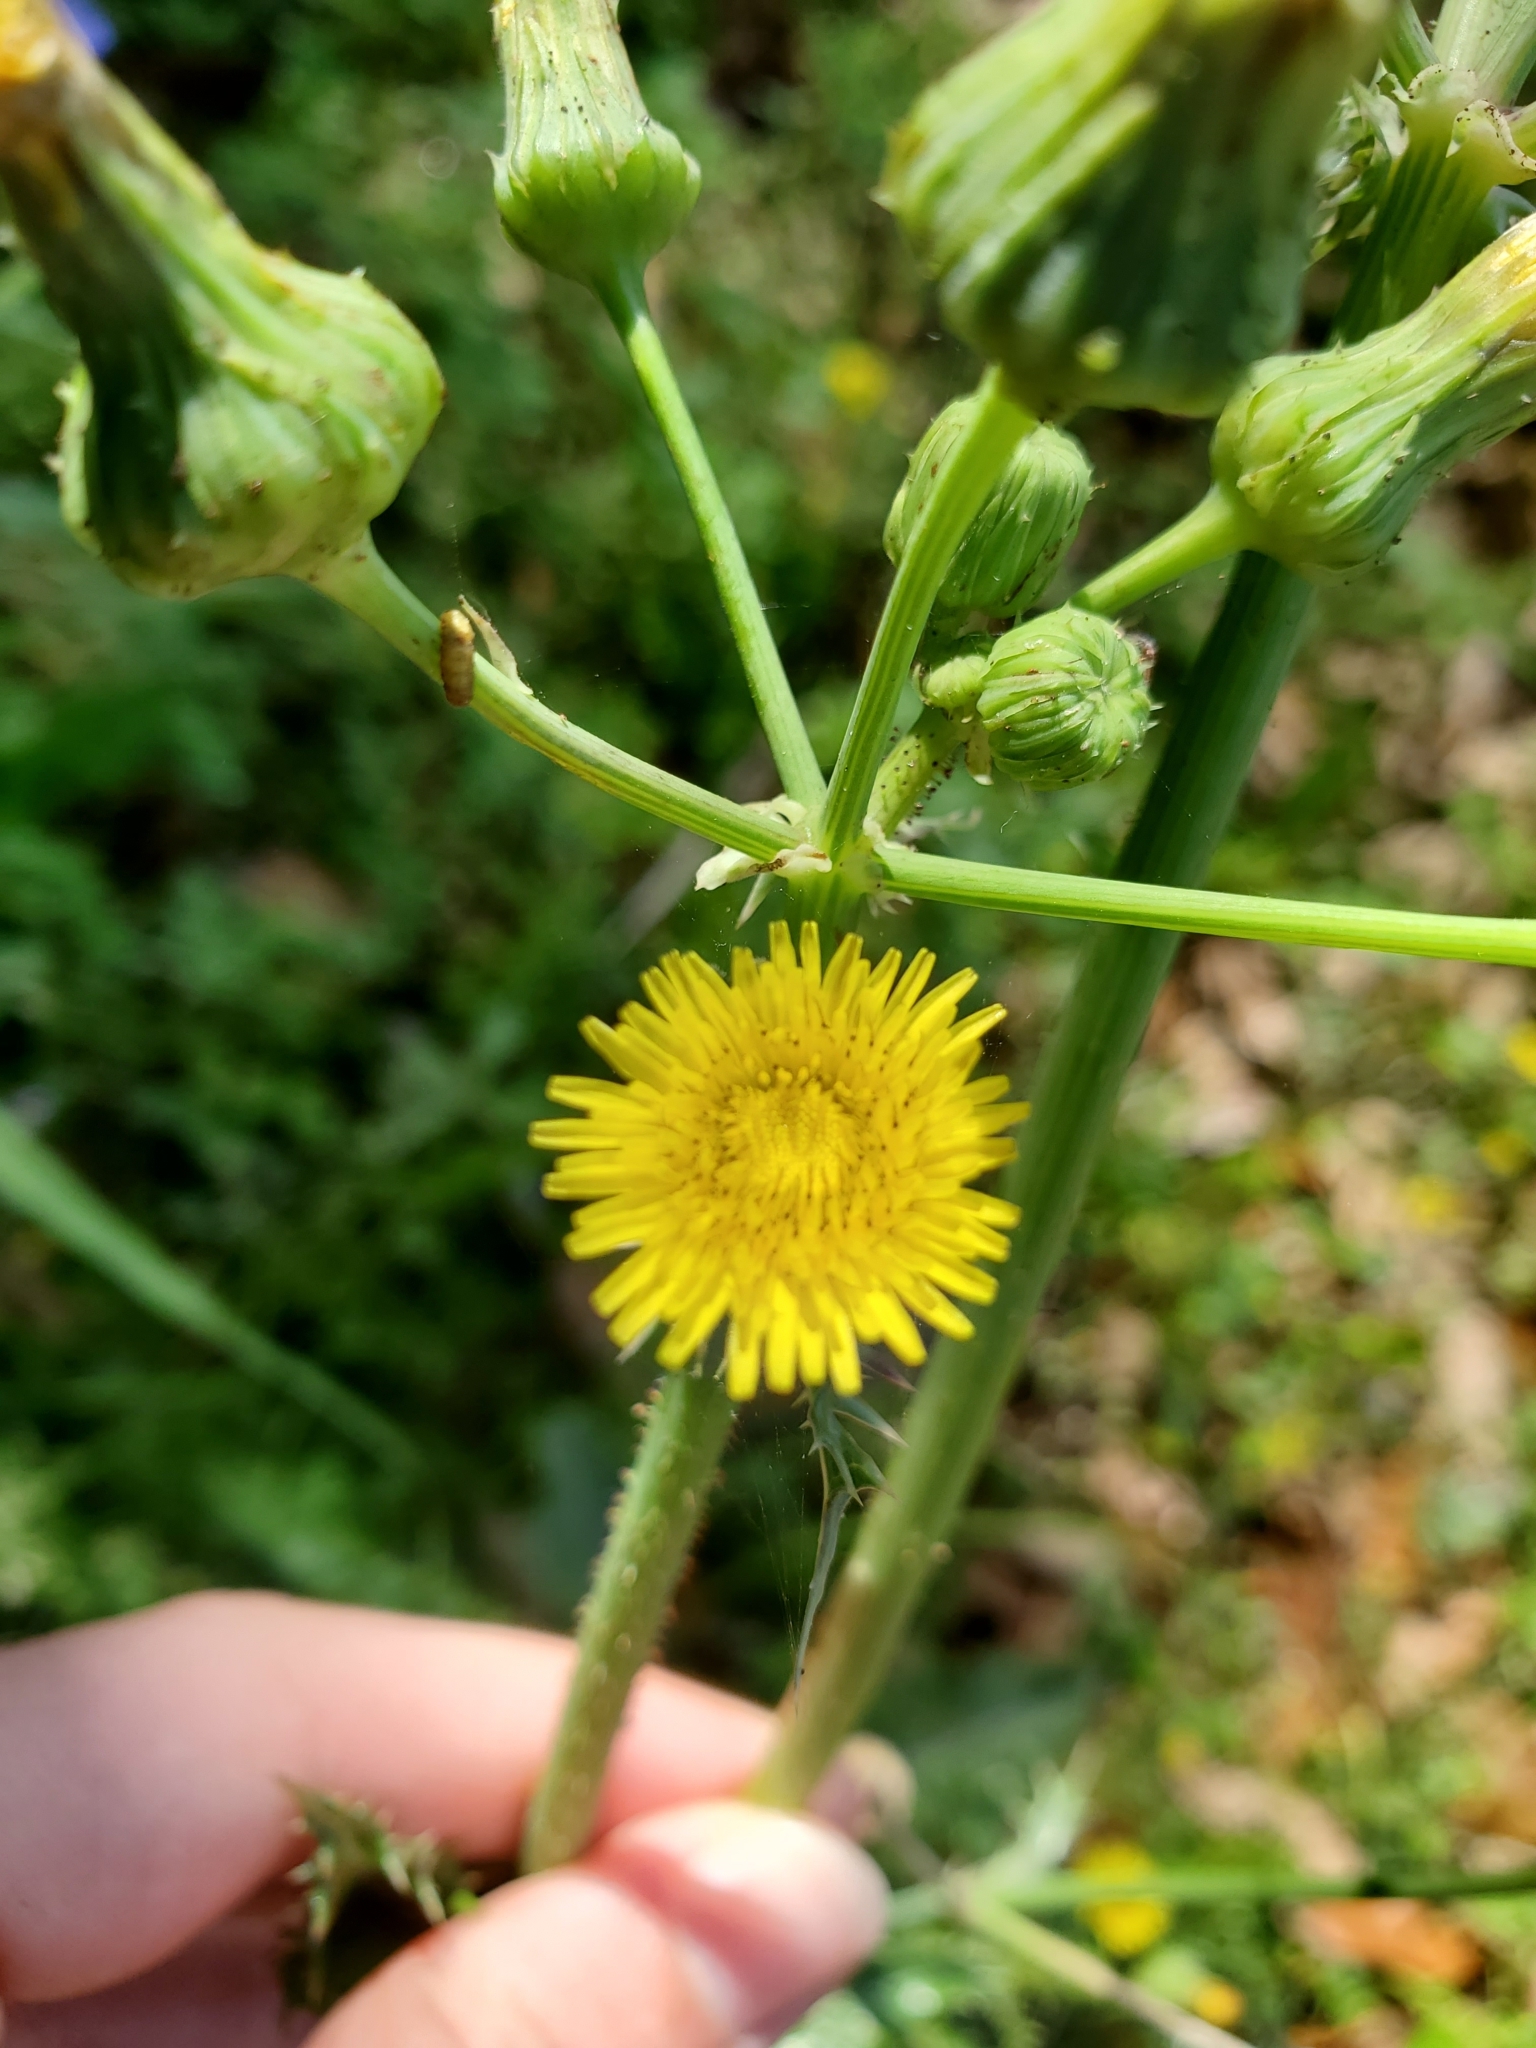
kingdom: Plantae
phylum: Tracheophyta
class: Magnoliopsida
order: Asterales
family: Asteraceae
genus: Sonchus
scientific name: Sonchus asper
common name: Prickly sow-thistle
